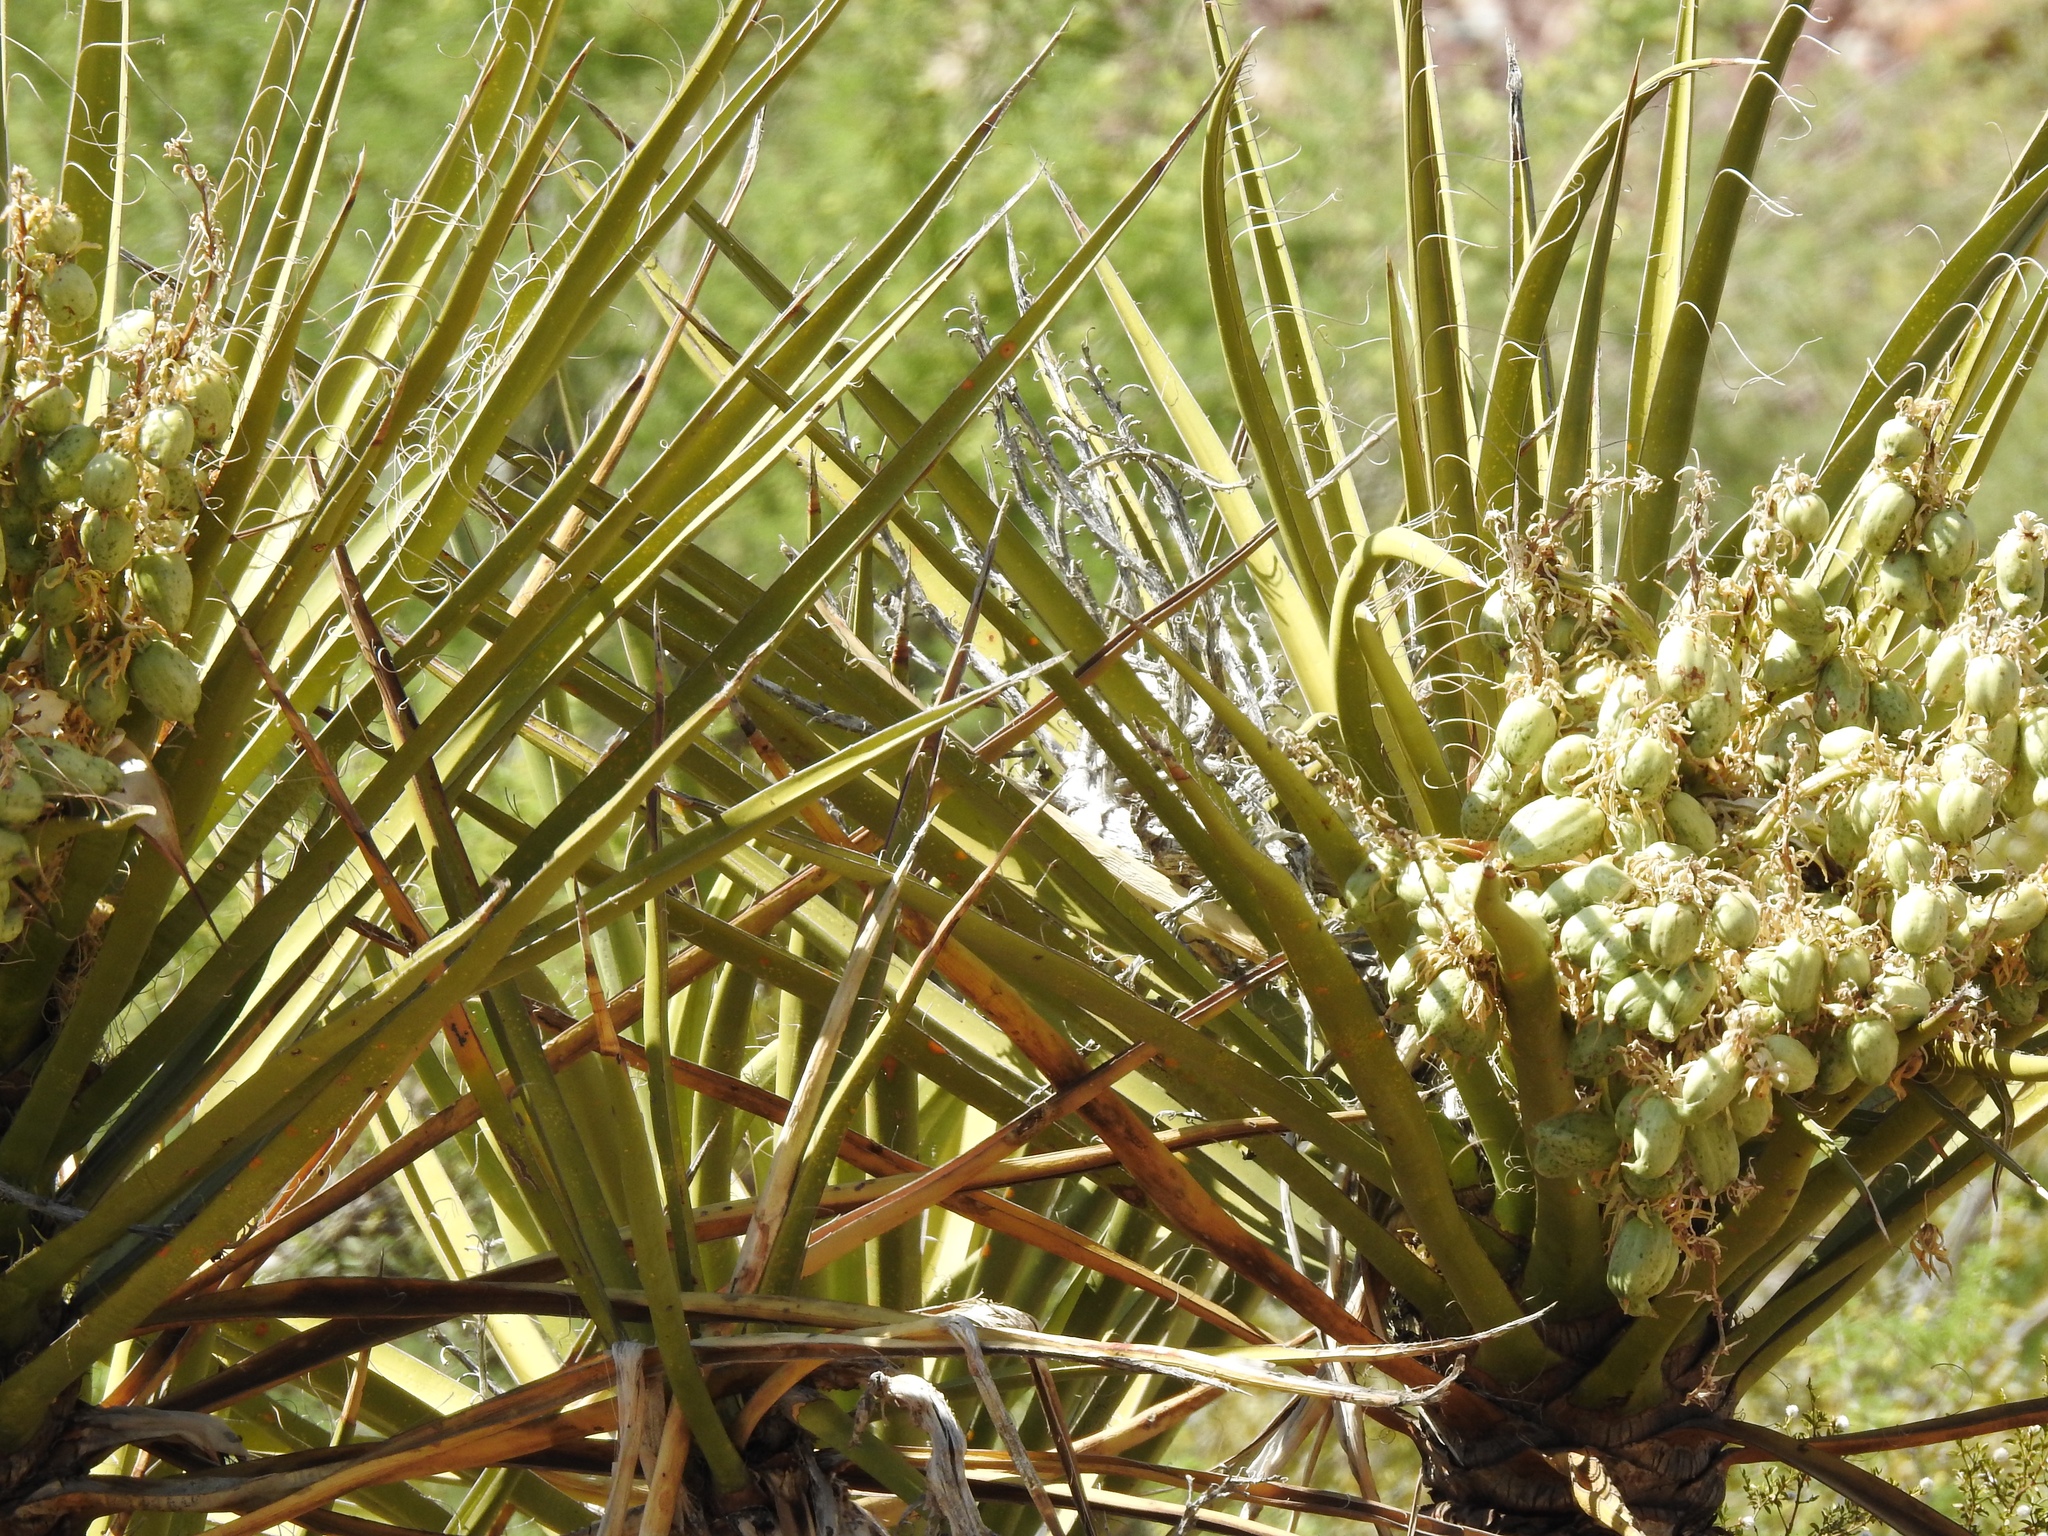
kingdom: Plantae
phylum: Tracheophyta
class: Liliopsida
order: Asparagales
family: Asparagaceae
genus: Yucca
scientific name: Yucca schidigera
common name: Mojave yucca
